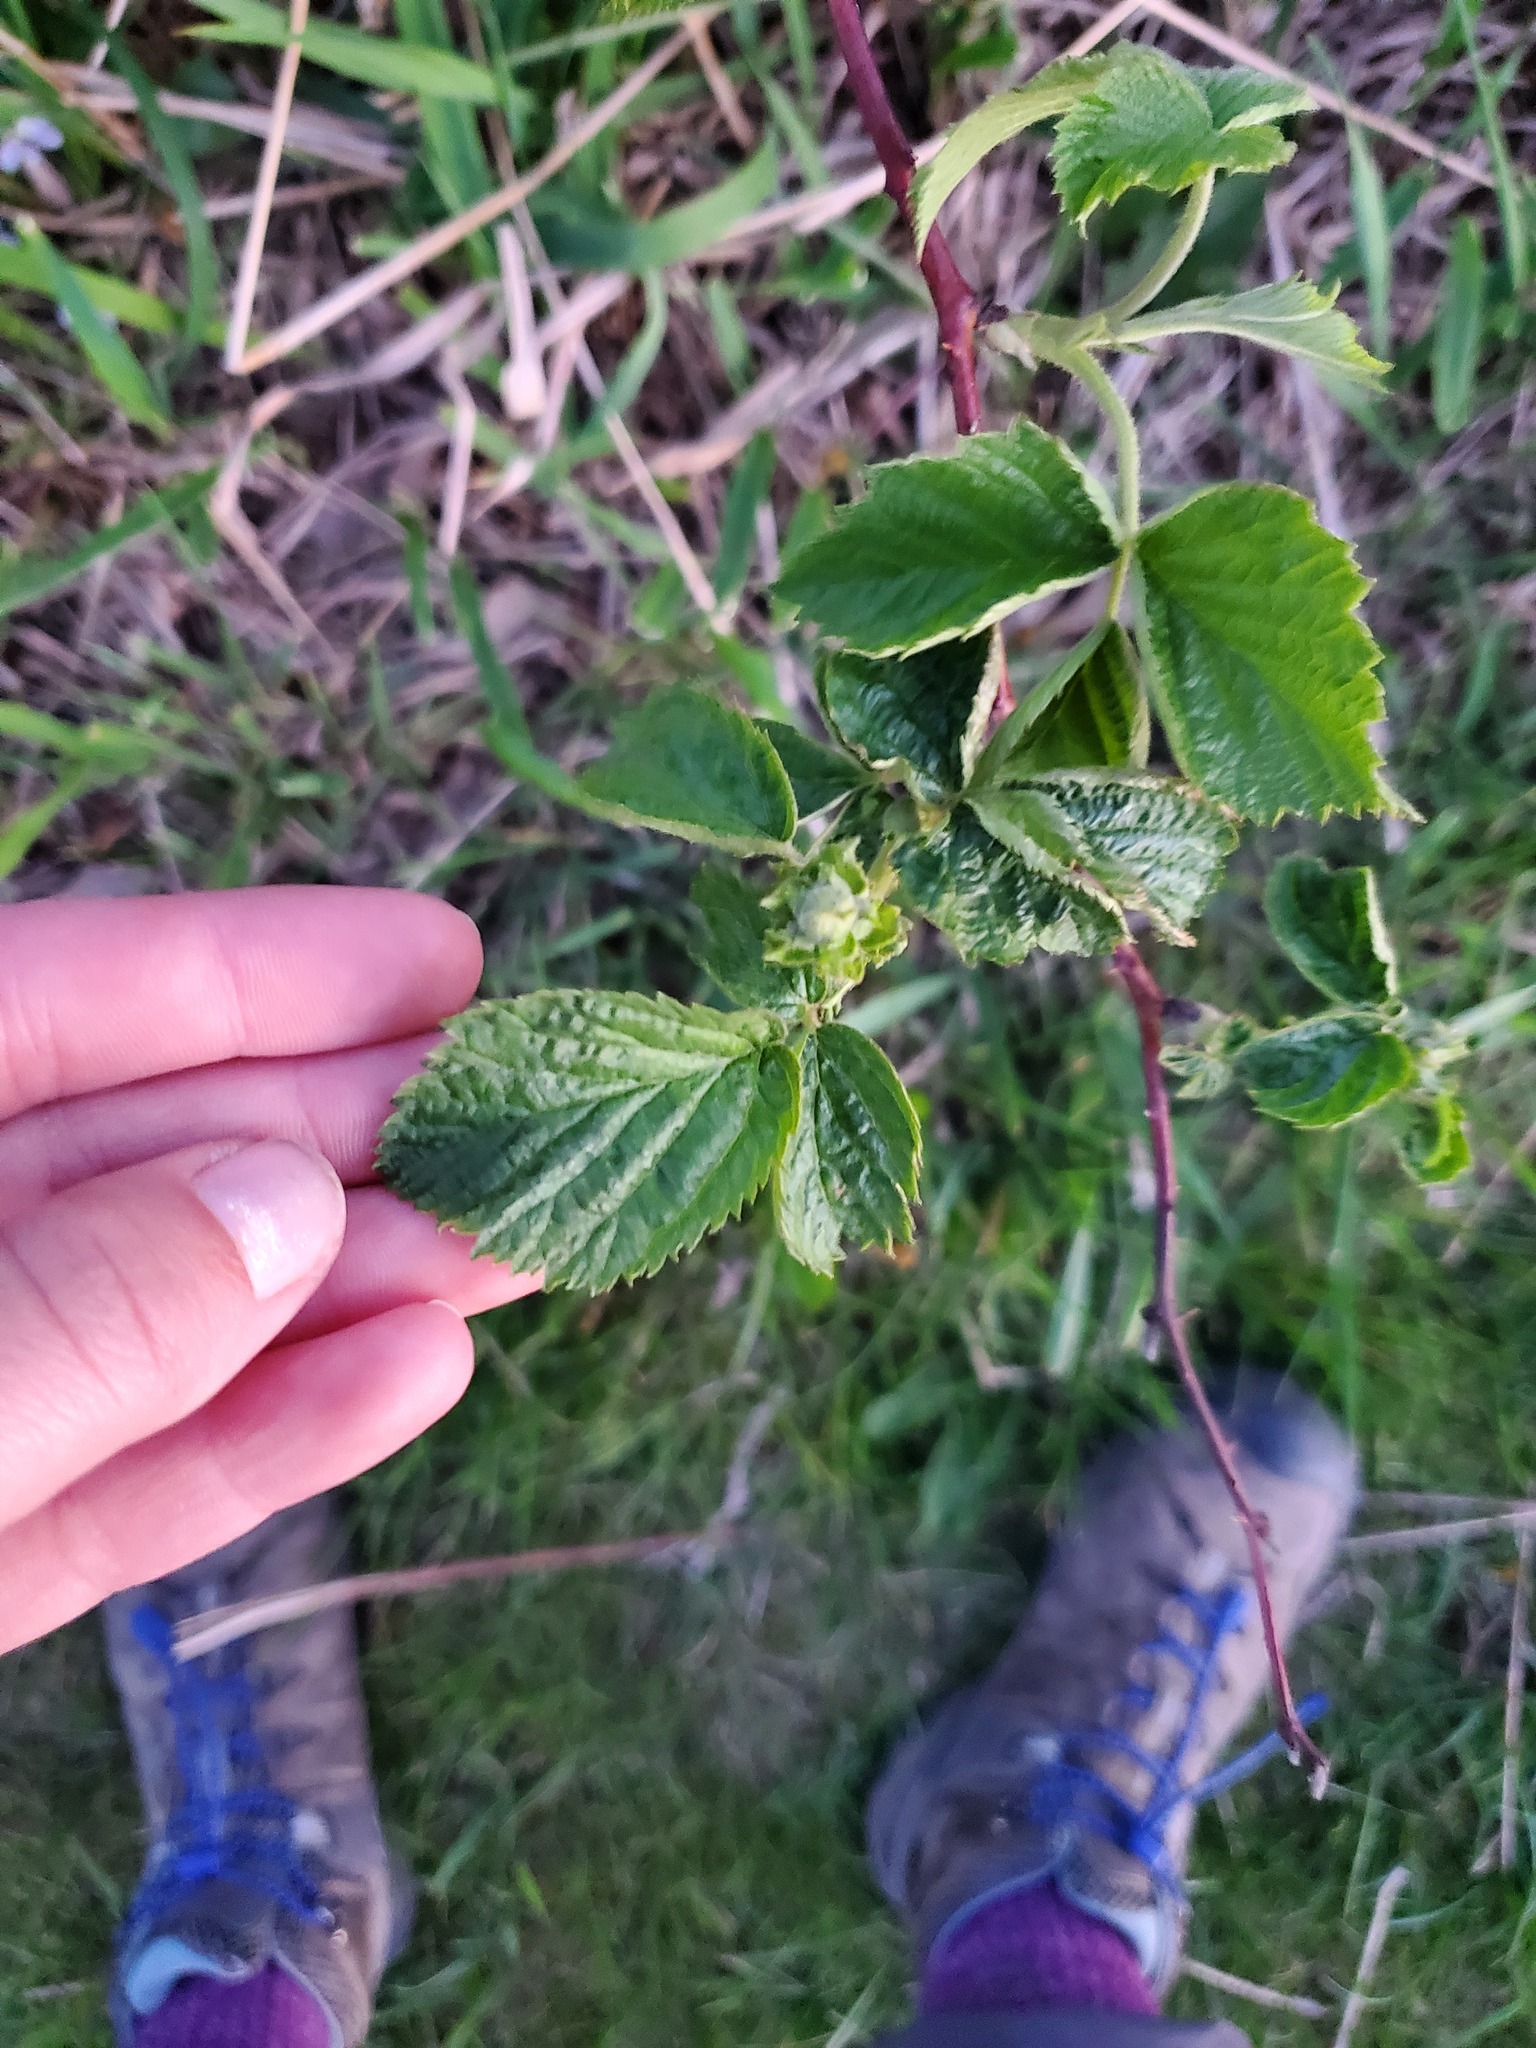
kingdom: Plantae
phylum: Tracheophyta
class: Magnoliopsida
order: Rosales
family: Rosaceae
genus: Rubus
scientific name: Rubus occidentalis
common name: Black raspberry
